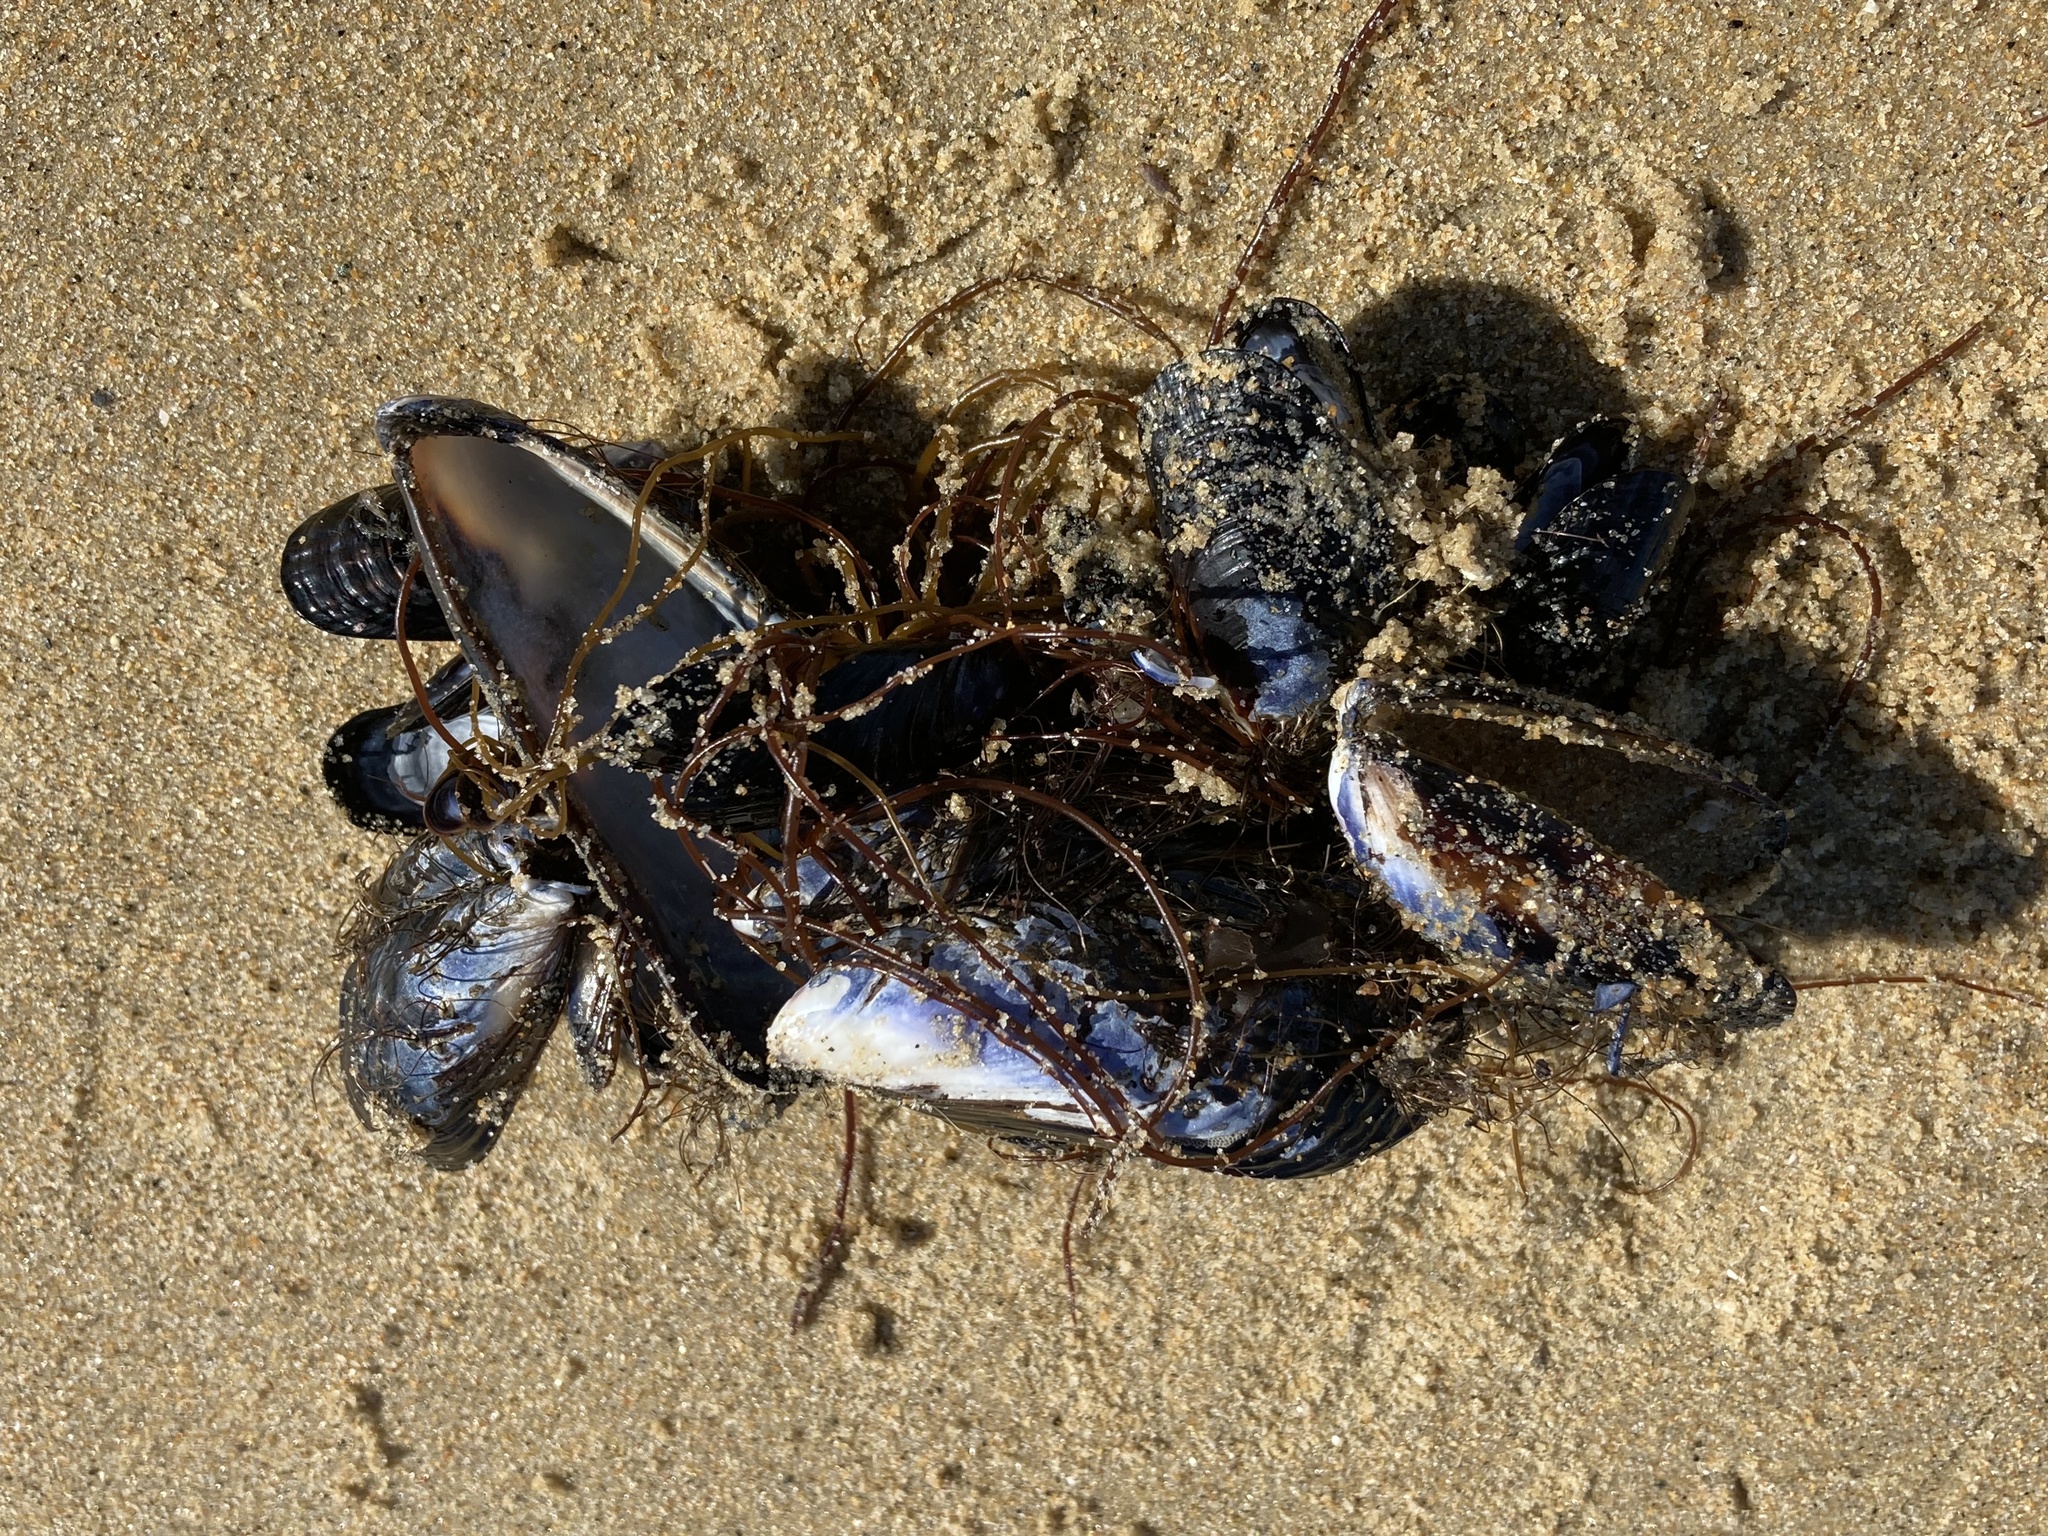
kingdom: Animalia
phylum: Mollusca
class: Bivalvia
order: Mytilida
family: Mytilidae
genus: Mytilus
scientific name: Mytilus californianus
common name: California mussel
